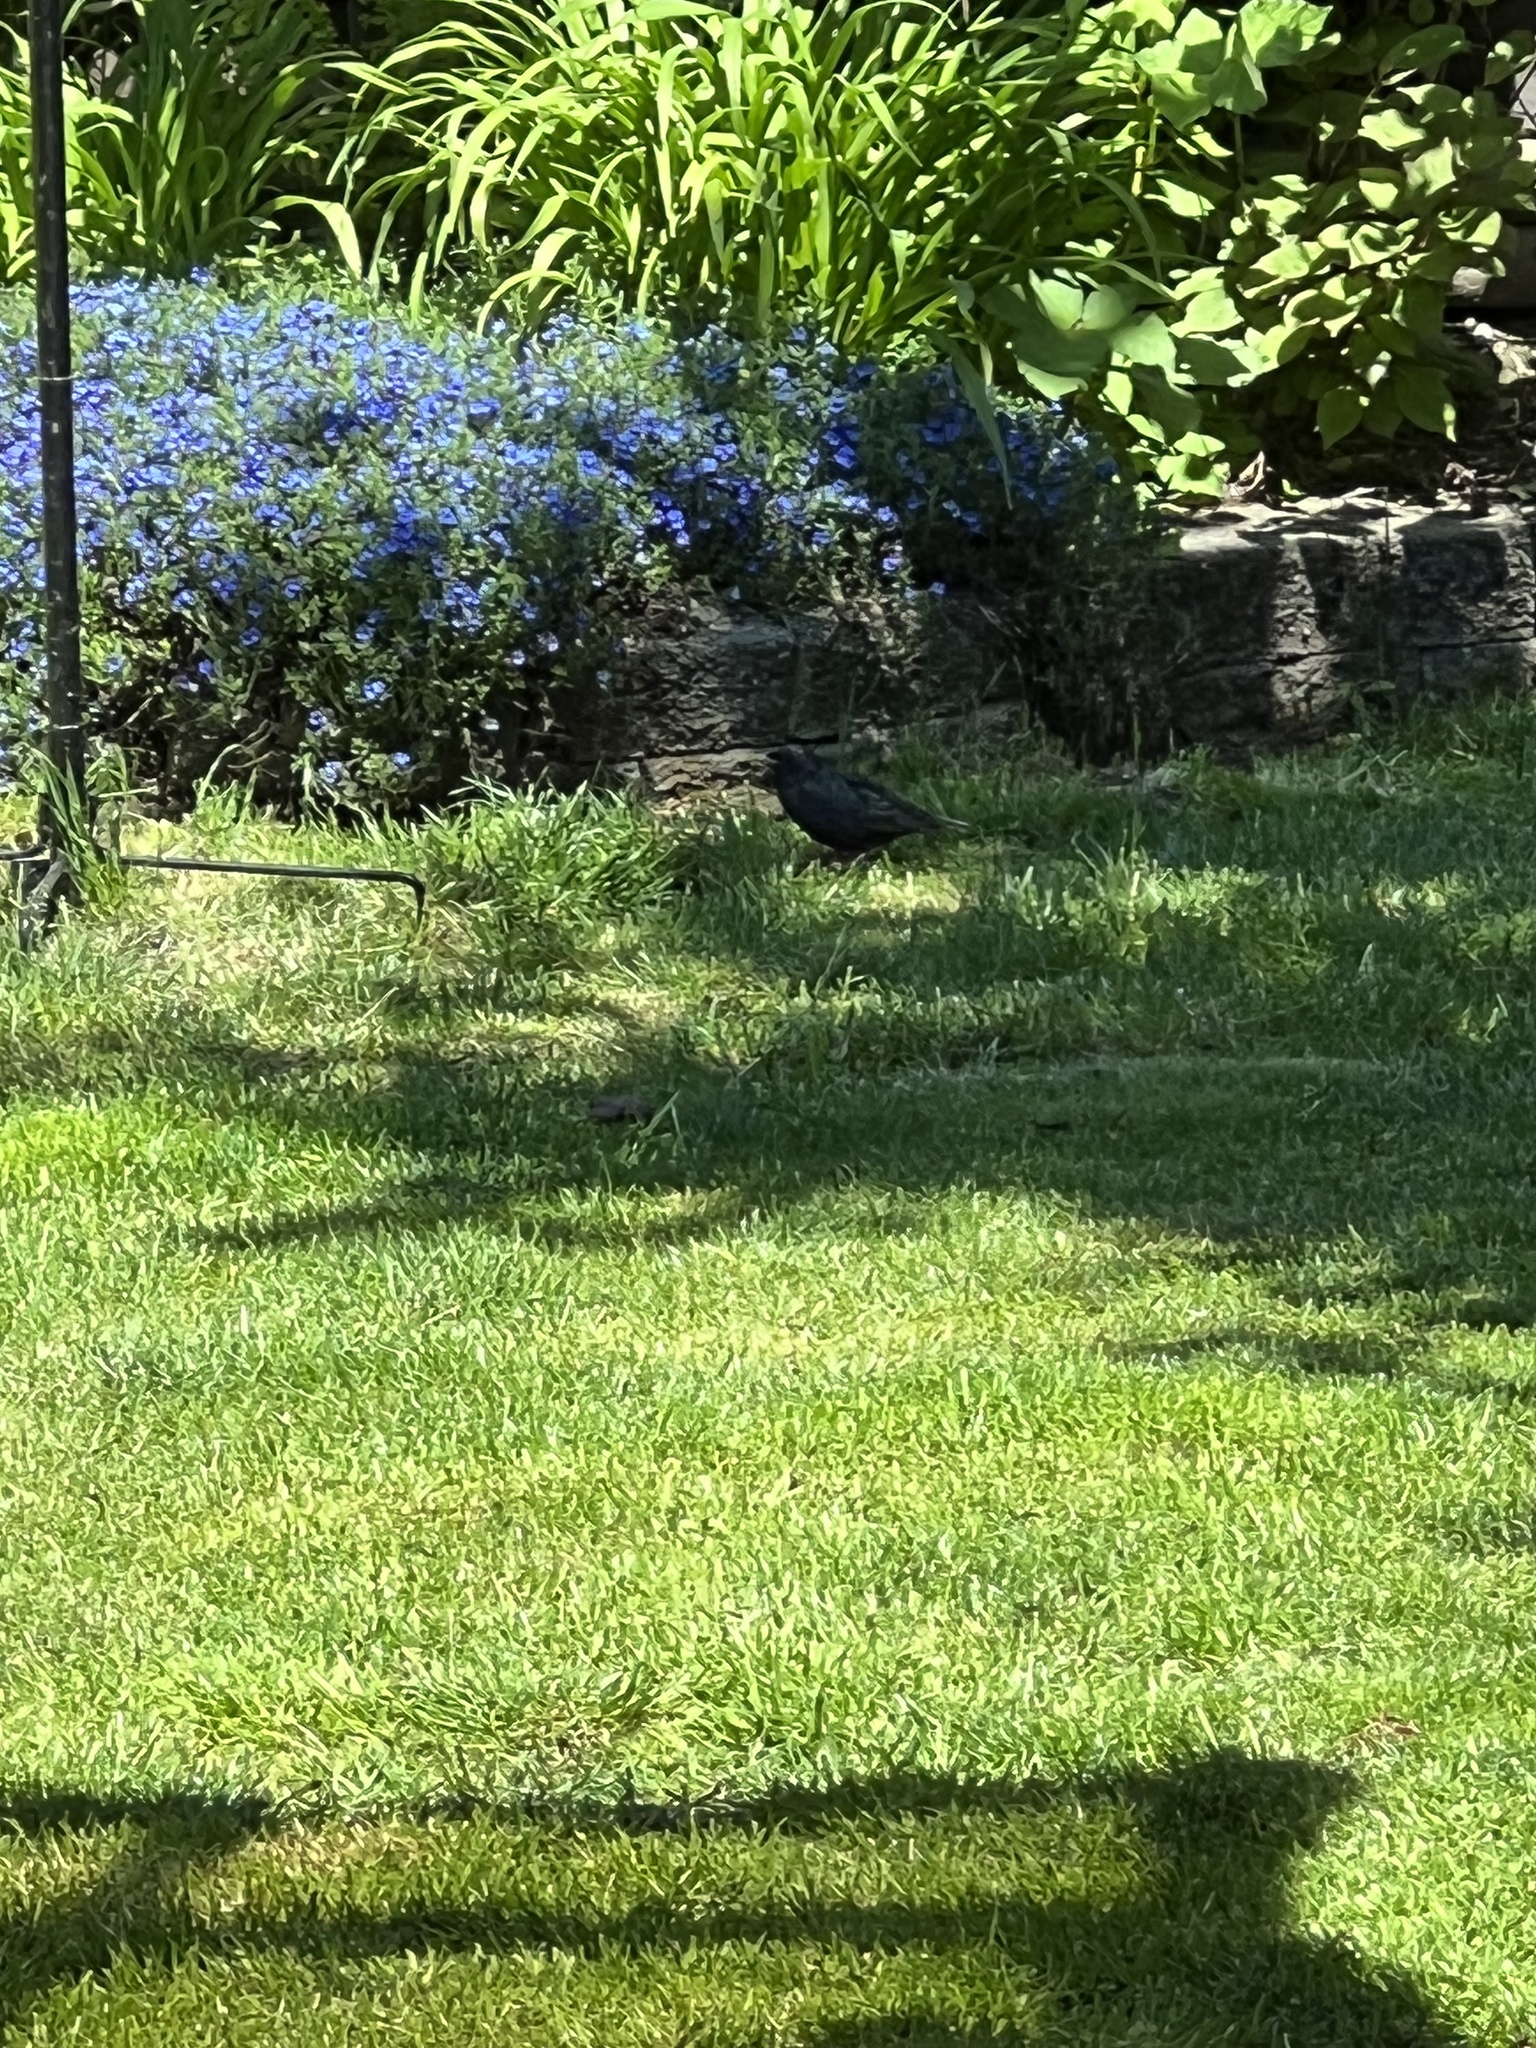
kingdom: Animalia
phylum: Chordata
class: Aves
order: Passeriformes
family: Sturnidae
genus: Sturnus
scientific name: Sturnus vulgaris
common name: Common starling
